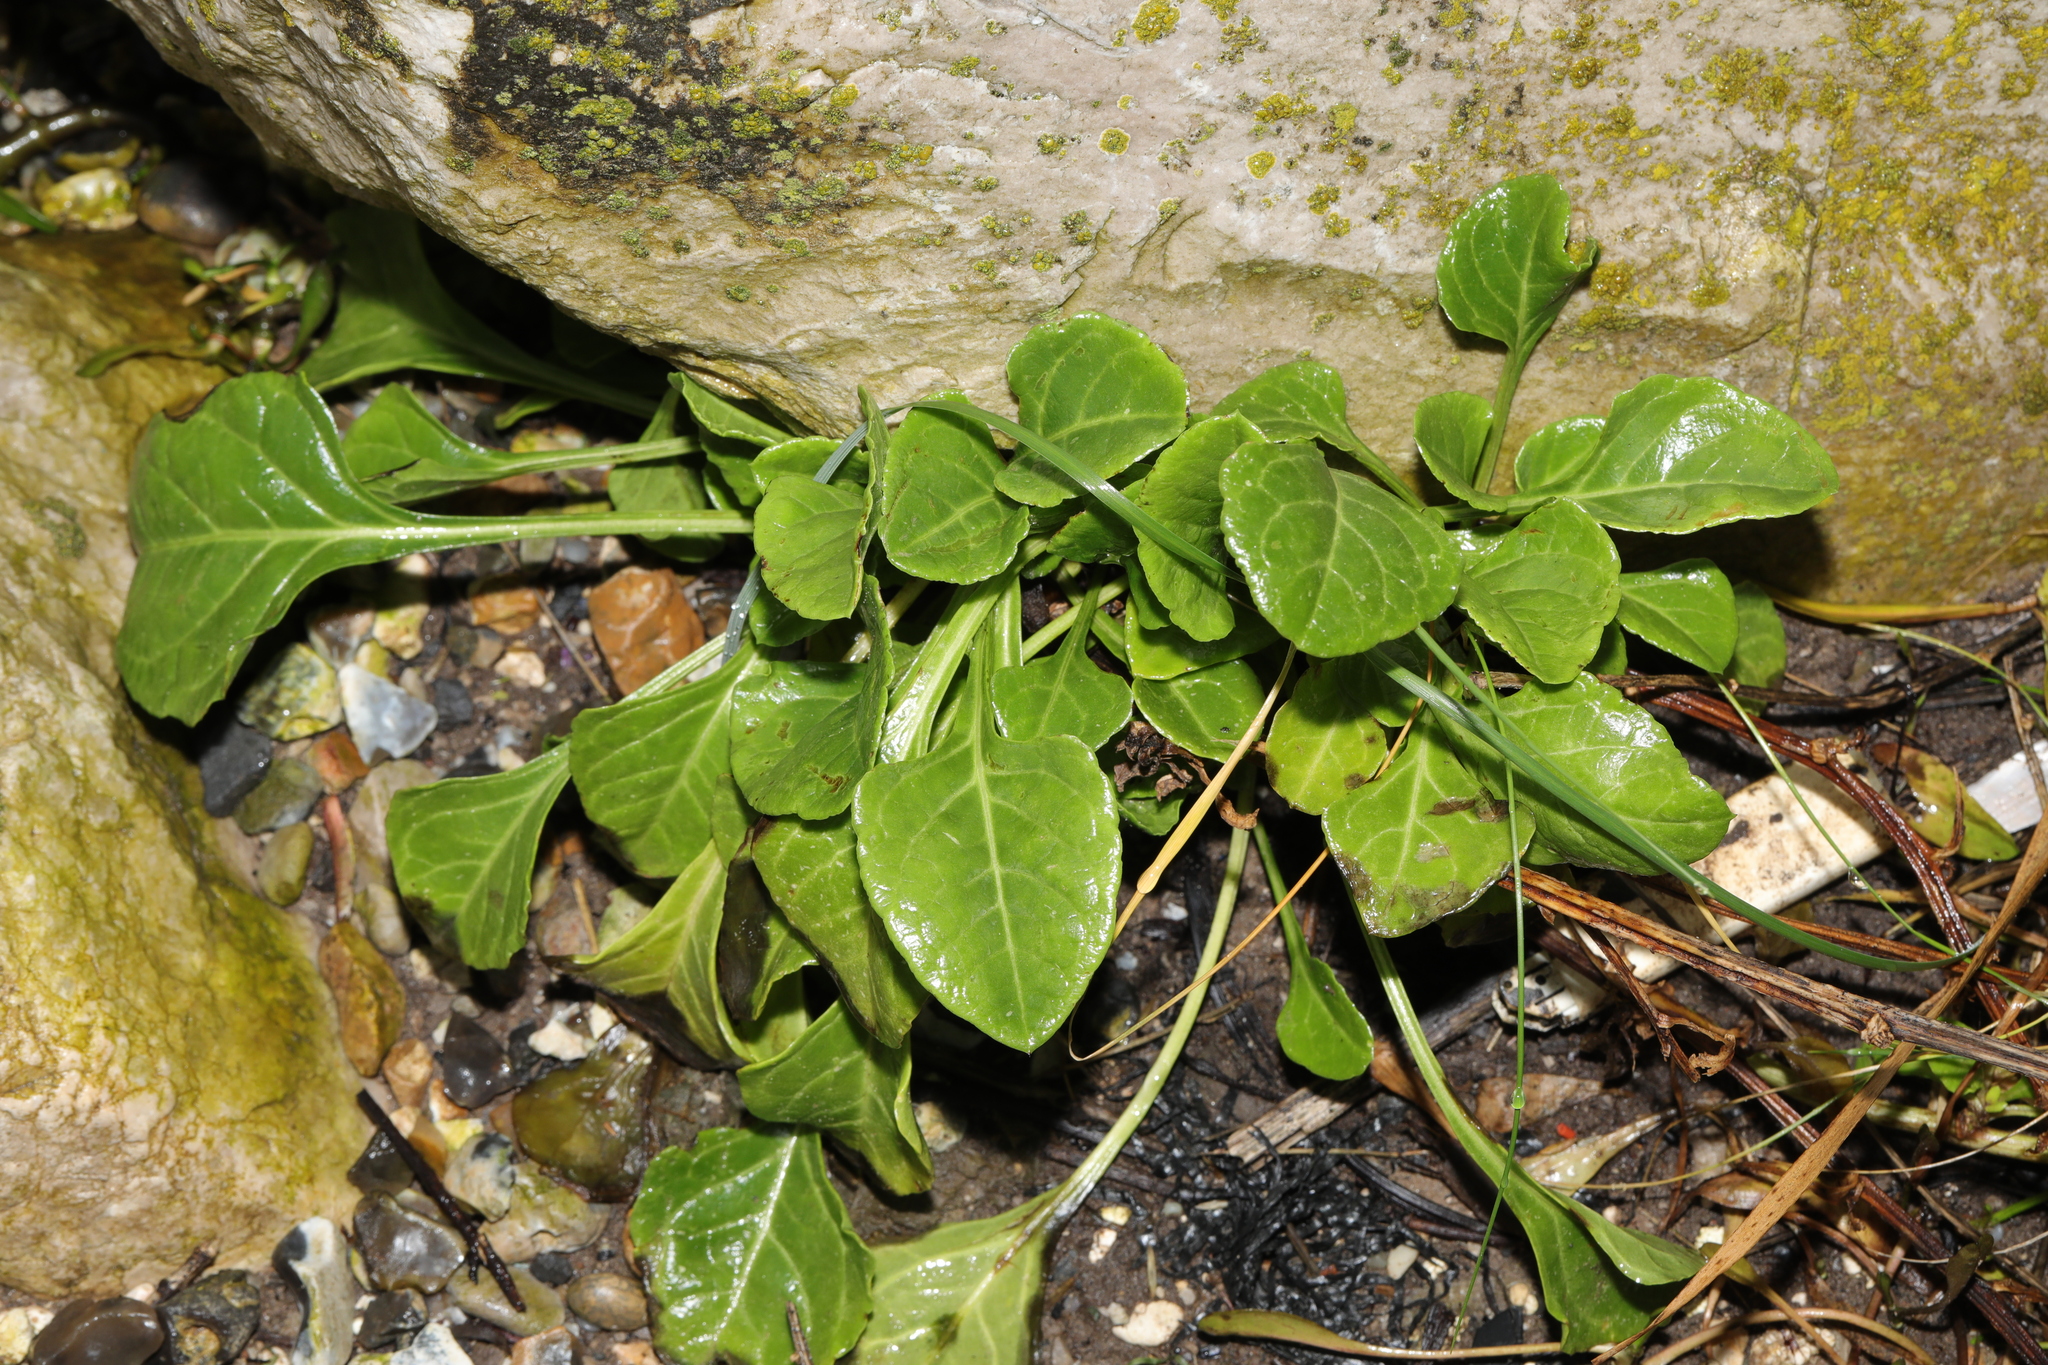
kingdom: Plantae
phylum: Tracheophyta
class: Magnoliopsida
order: Caryophyllales
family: Amaranthaceae
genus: Beta
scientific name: Beta vulgaris
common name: Beet
